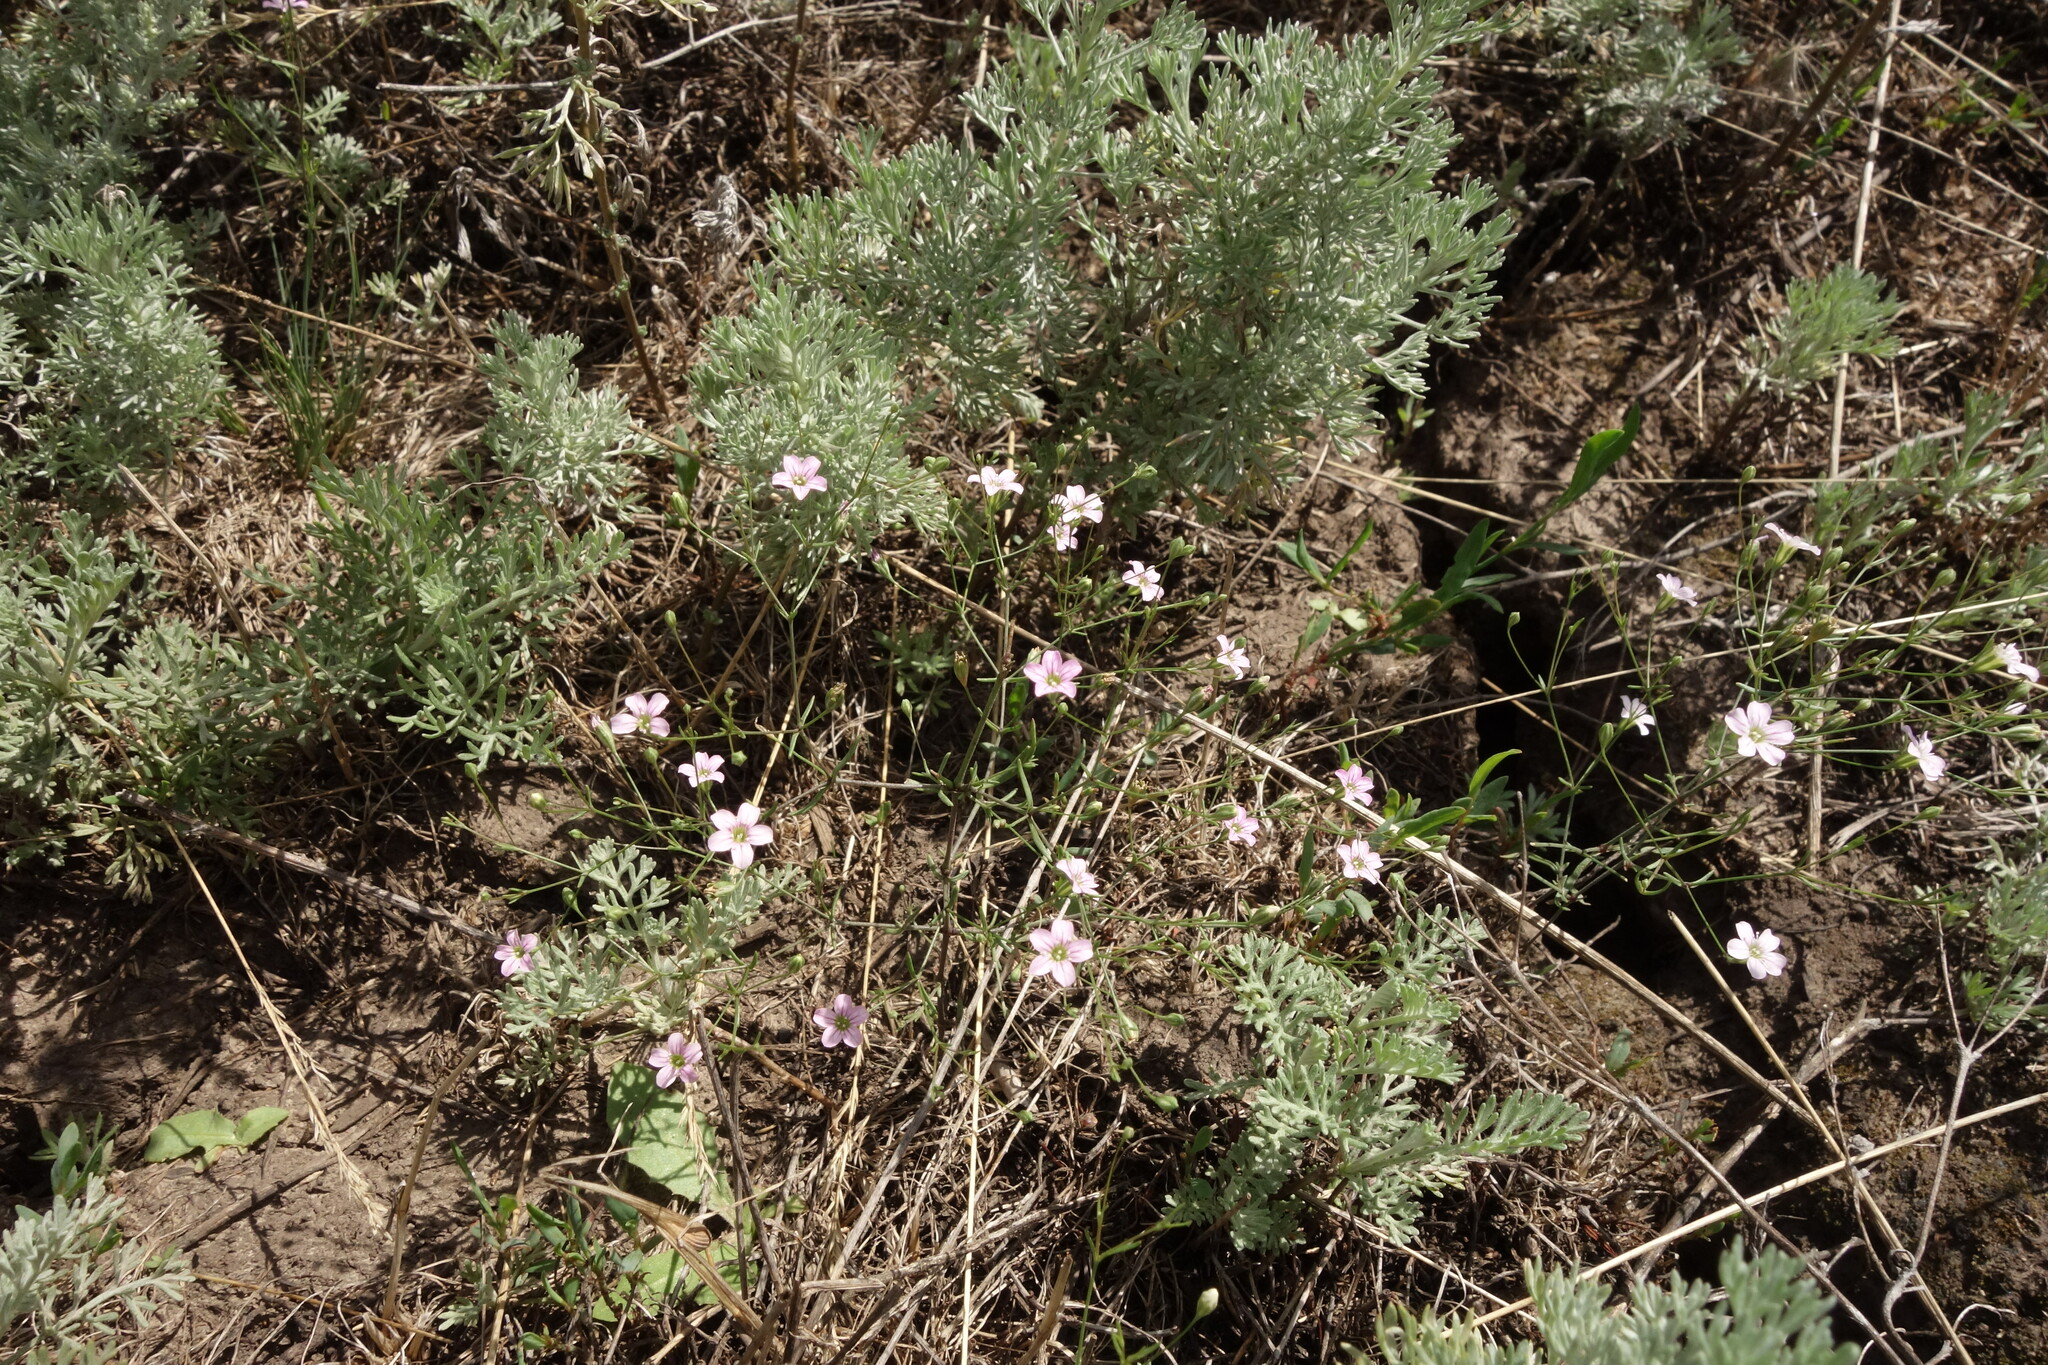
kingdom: Plantae
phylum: Tracheophyta
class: Magnoliopsida
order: Caryophyllales
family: Caryophyllaceae
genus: Psammophiliella
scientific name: Psammophiliella muralis
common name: Cushion baby's-breath
